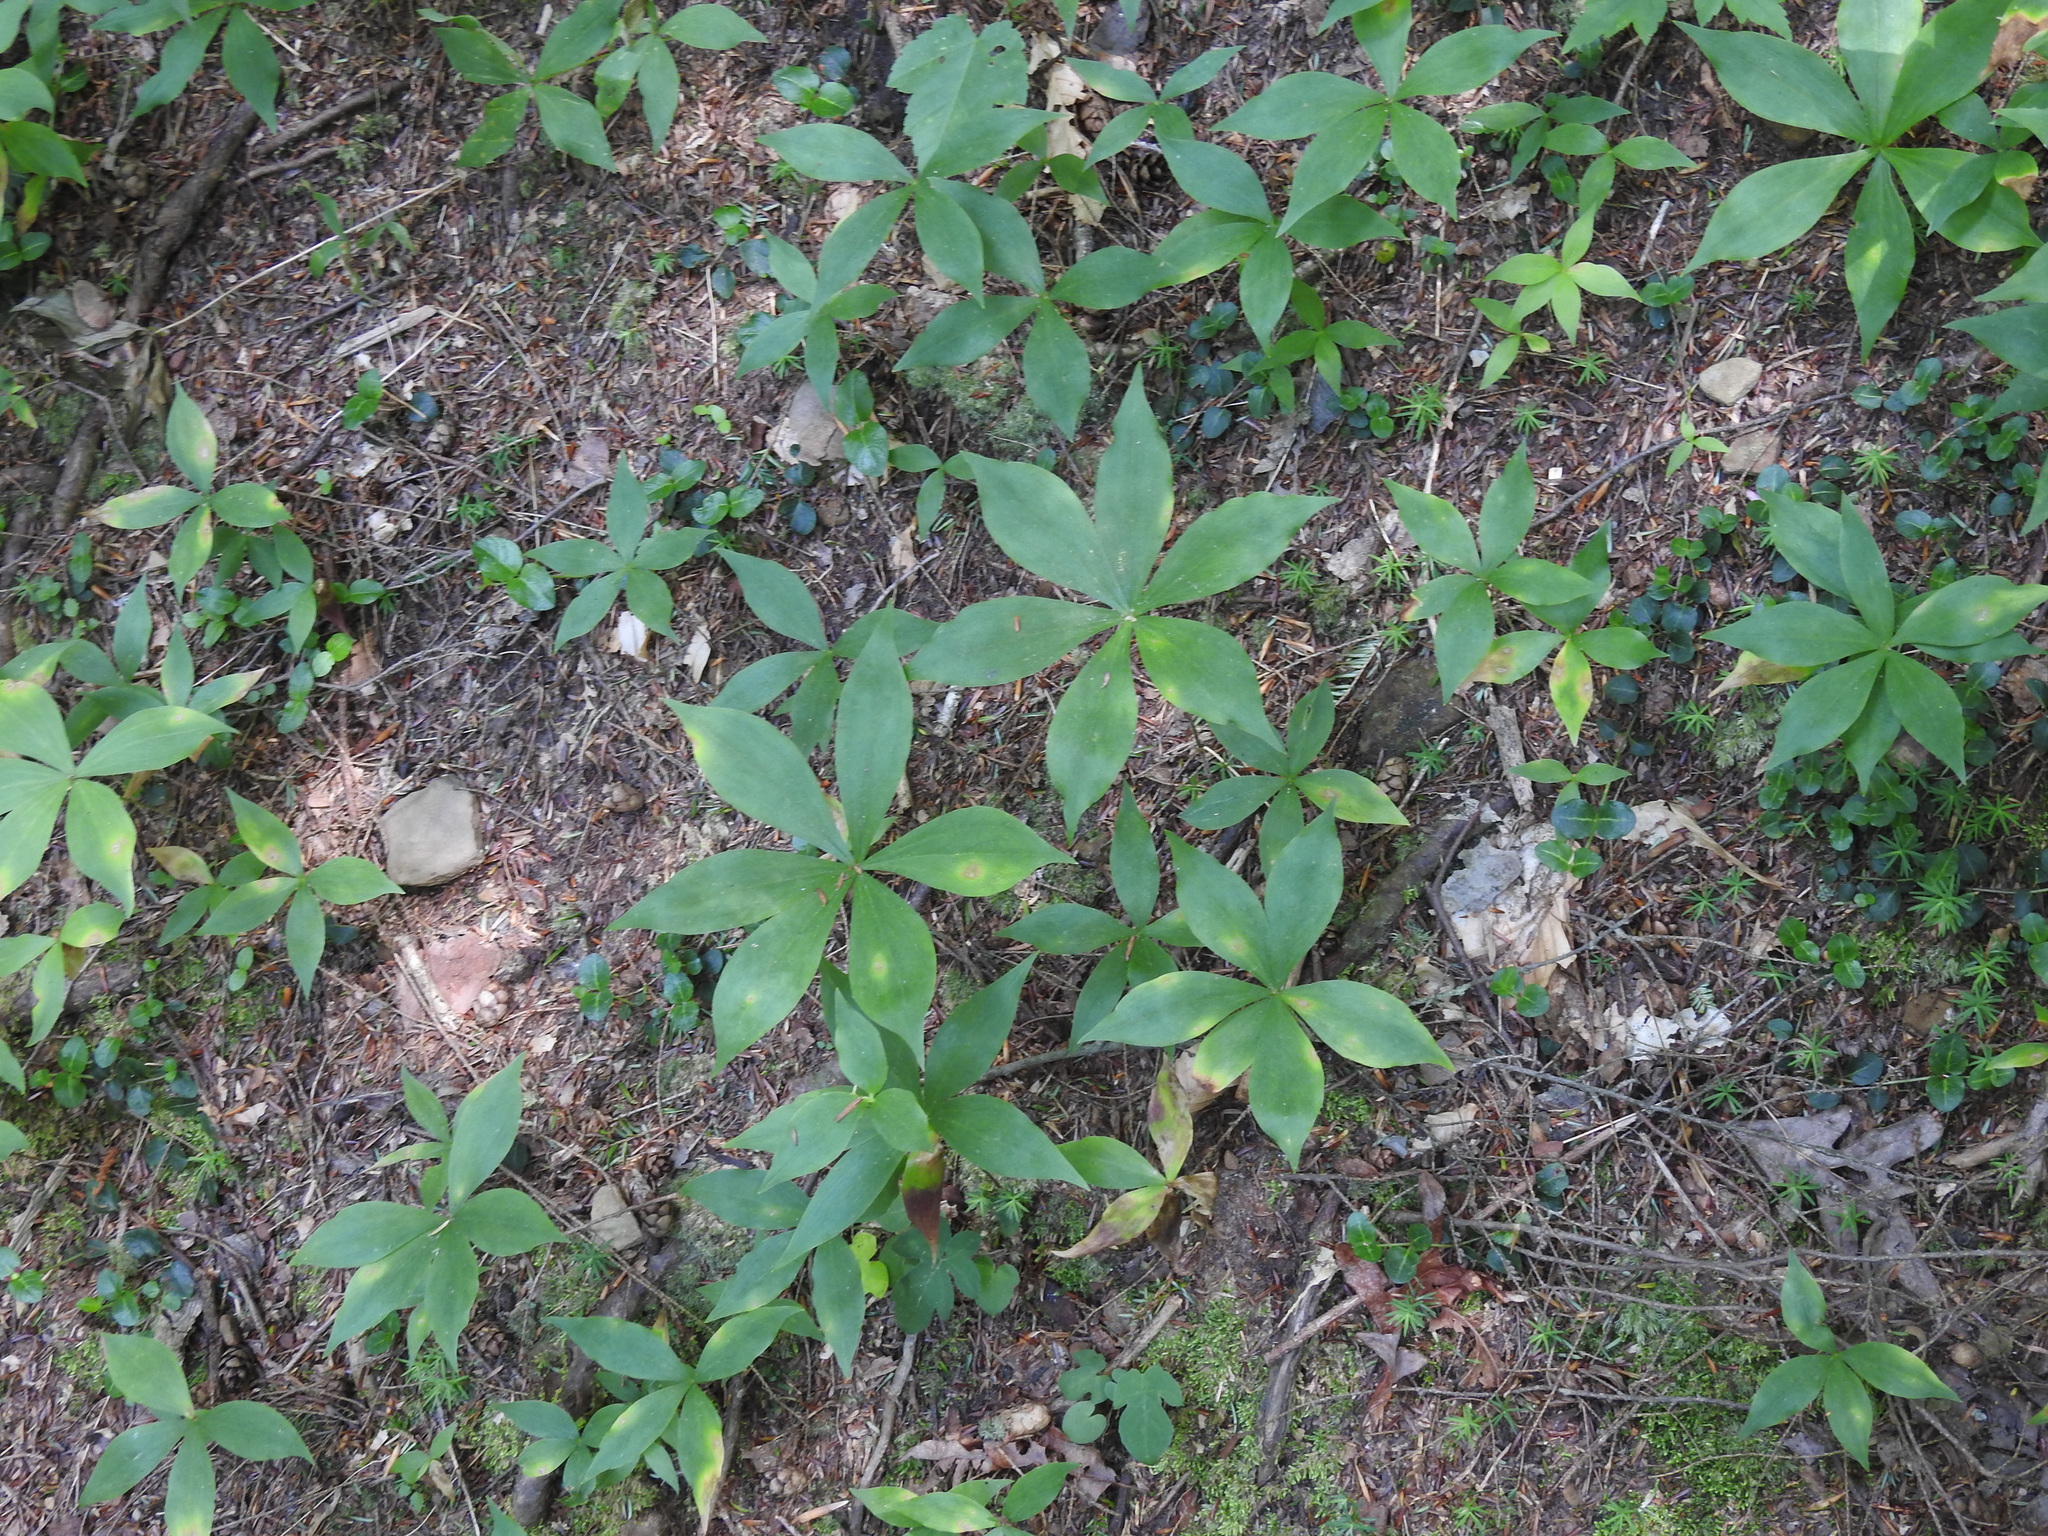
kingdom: Plantae
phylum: Tracheophyta
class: Liliopsida
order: Liliales
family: Liliaceae
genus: Medeola
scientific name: Medeola virginiana
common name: Indian cucumber-root
